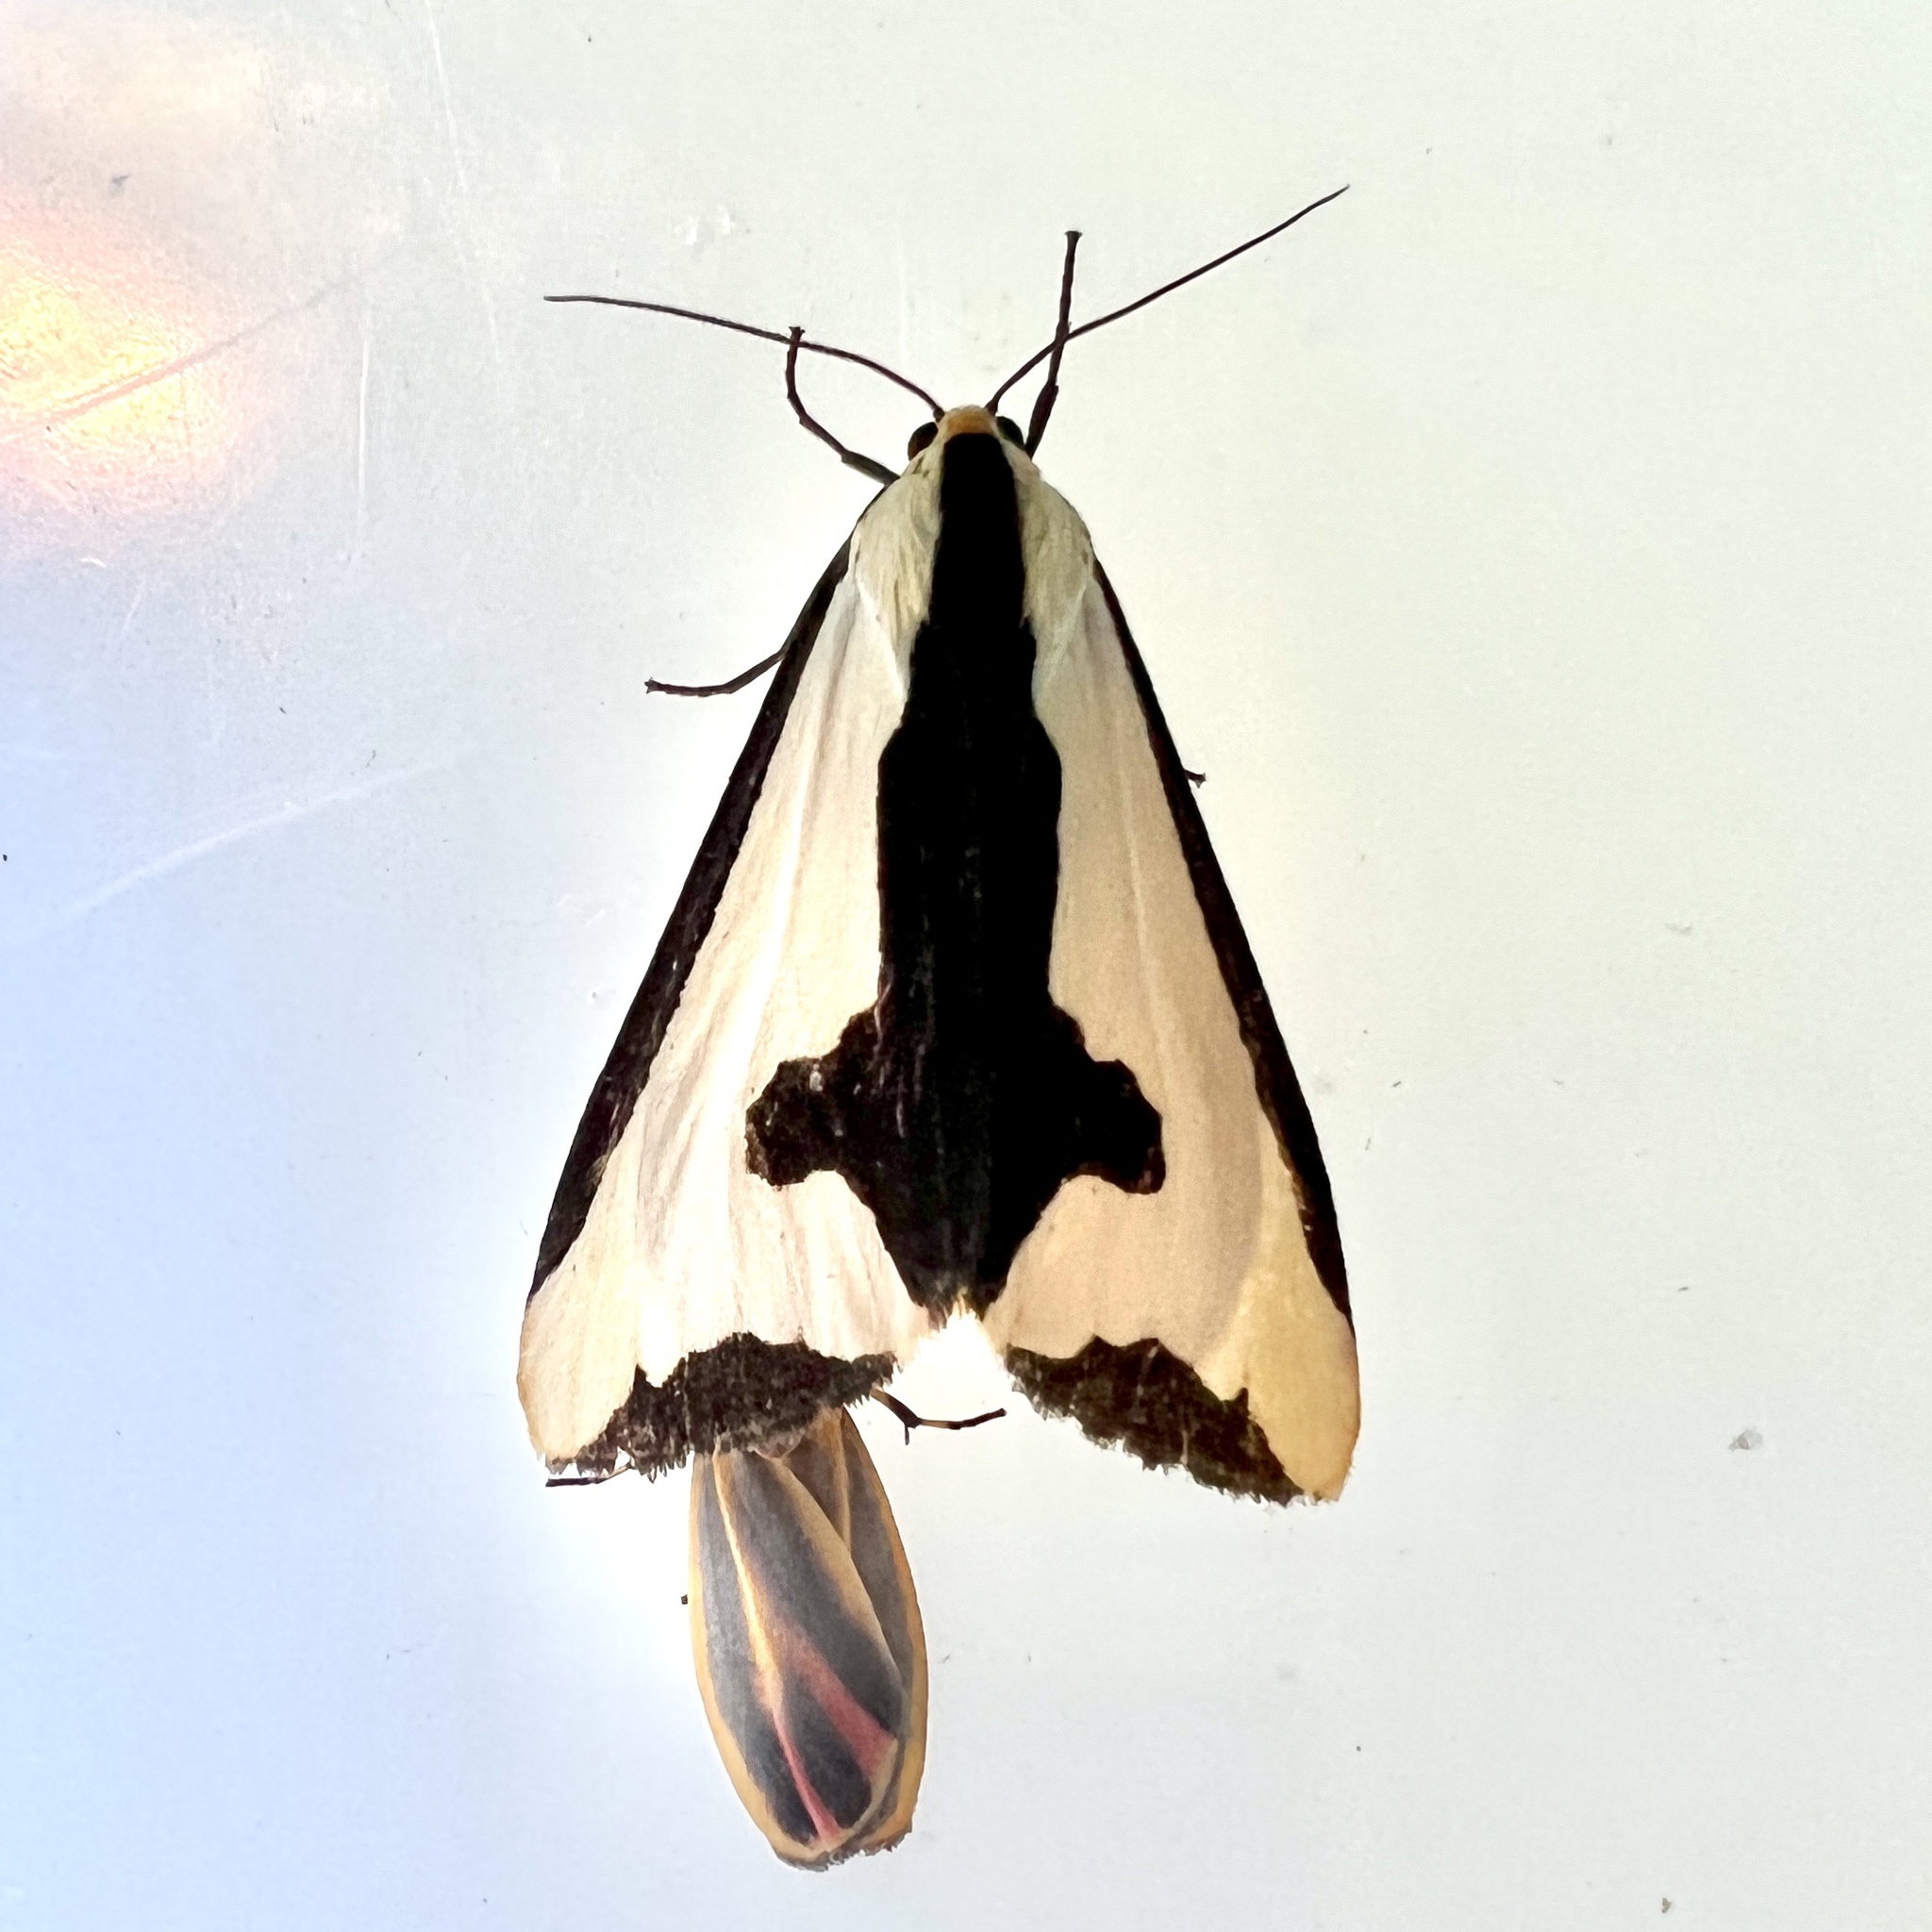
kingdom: Animalia
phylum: Arthropoda
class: Insecta
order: Lepidoptera
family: Erebidae
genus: Haploa
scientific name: Haploa clymene
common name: Clymene moth
